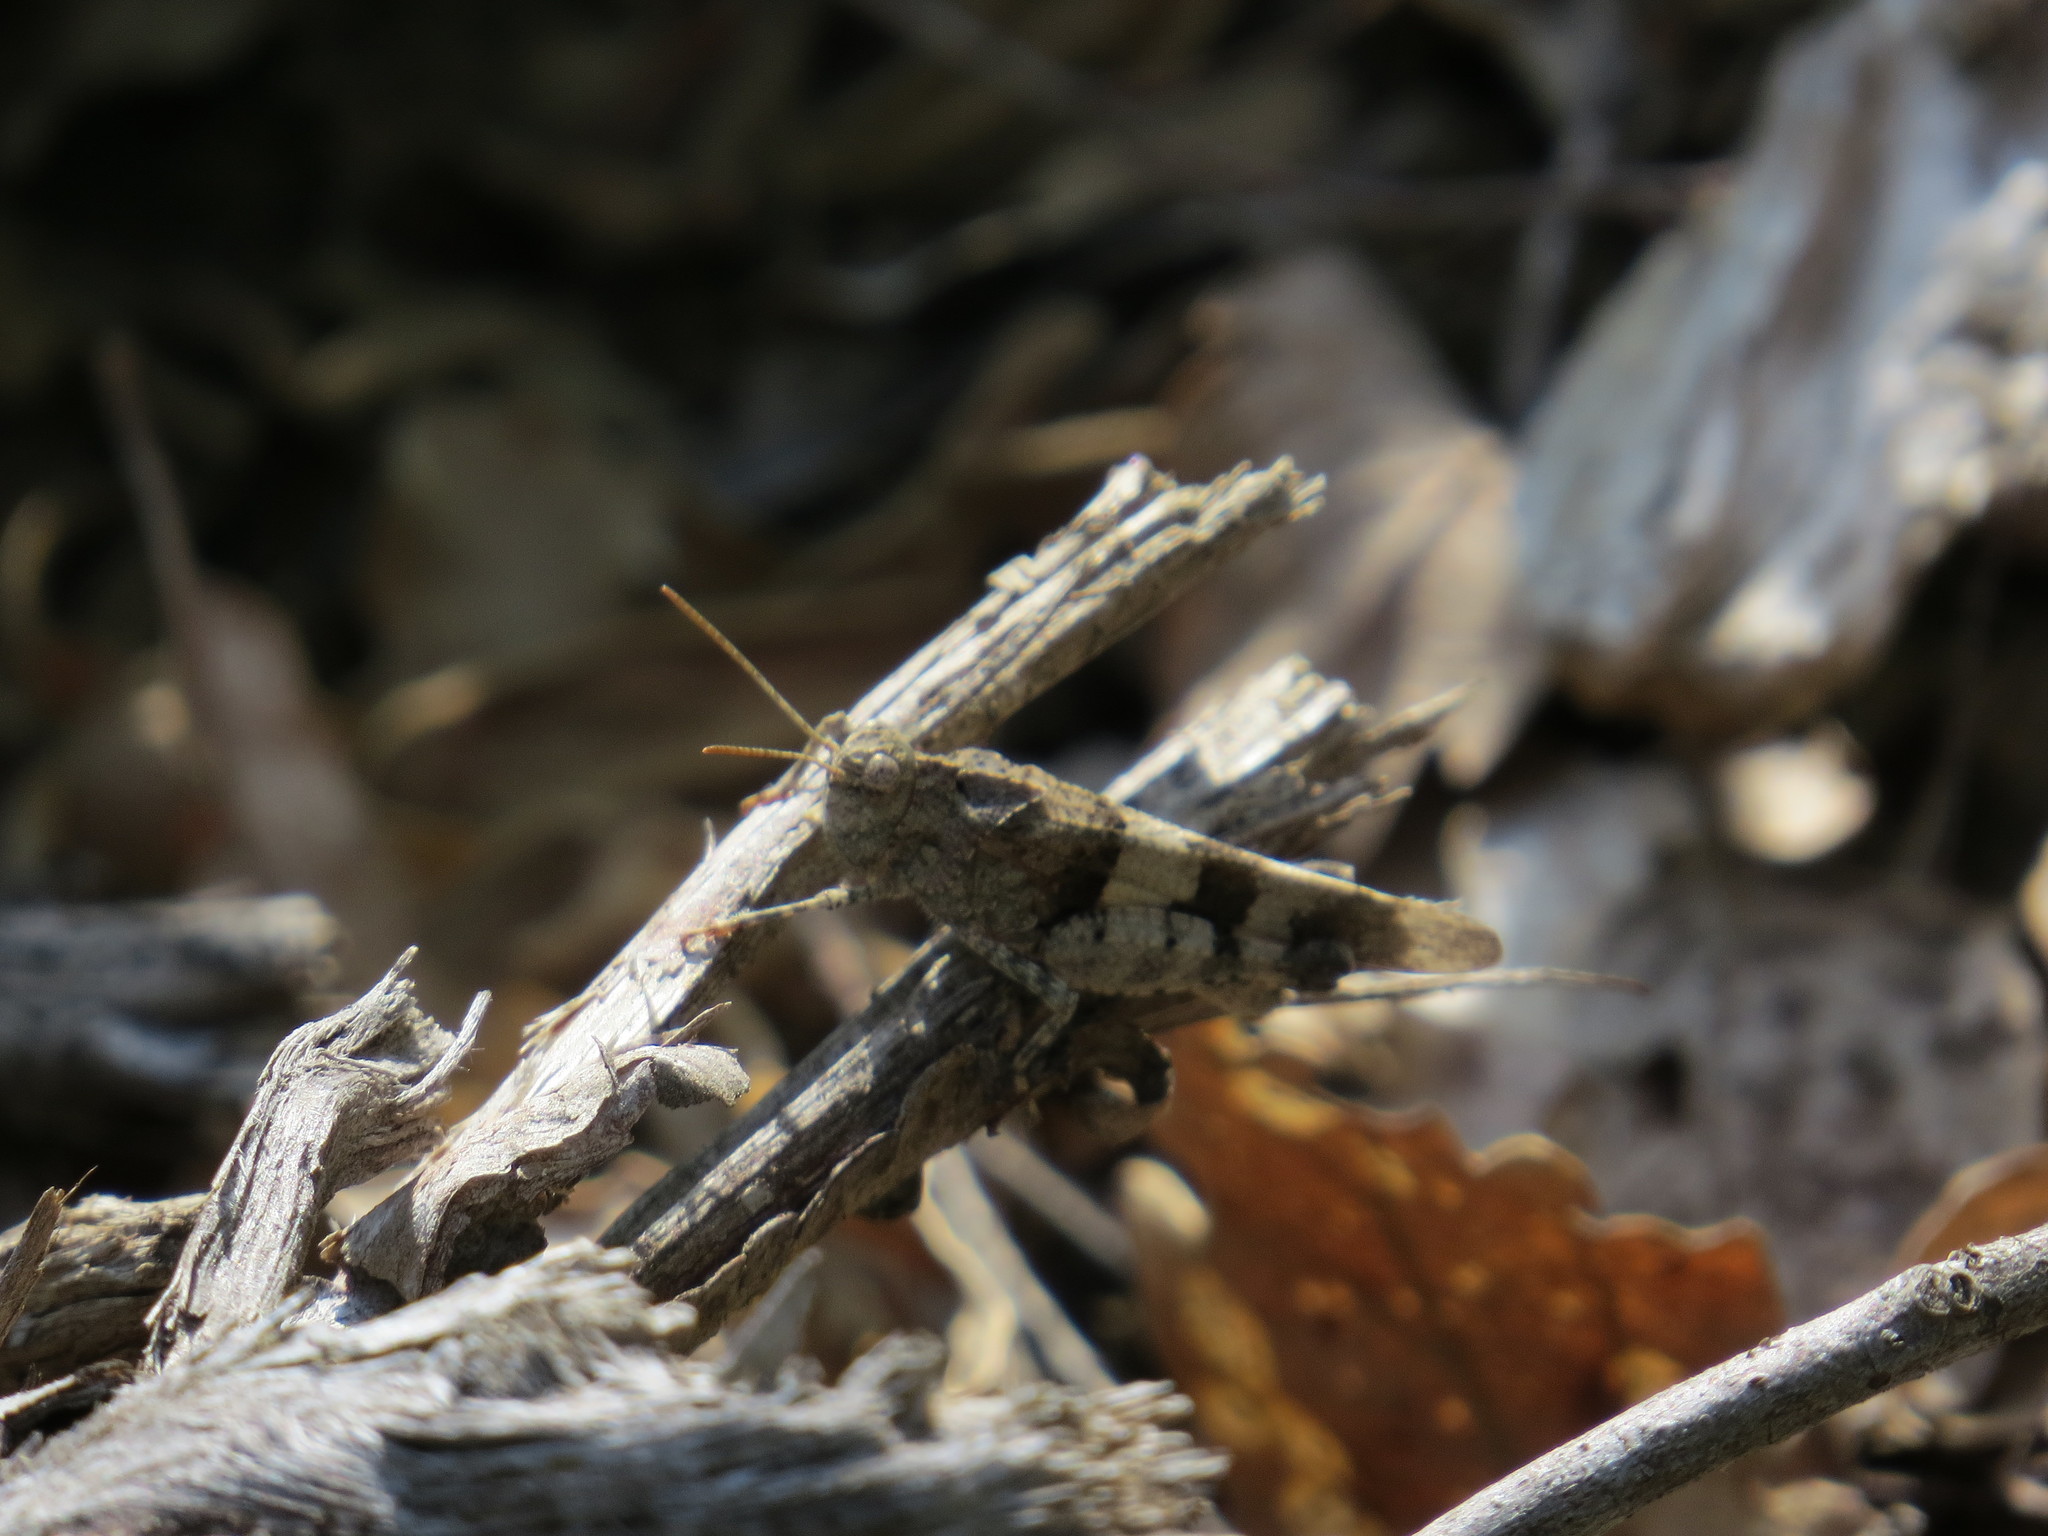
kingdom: Animalia
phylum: Arthropoda
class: Insecta
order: Orthoptera
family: Acrididae
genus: Oedipoda
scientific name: Oedipoda caerulescens
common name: Blue-winged grasshopper
